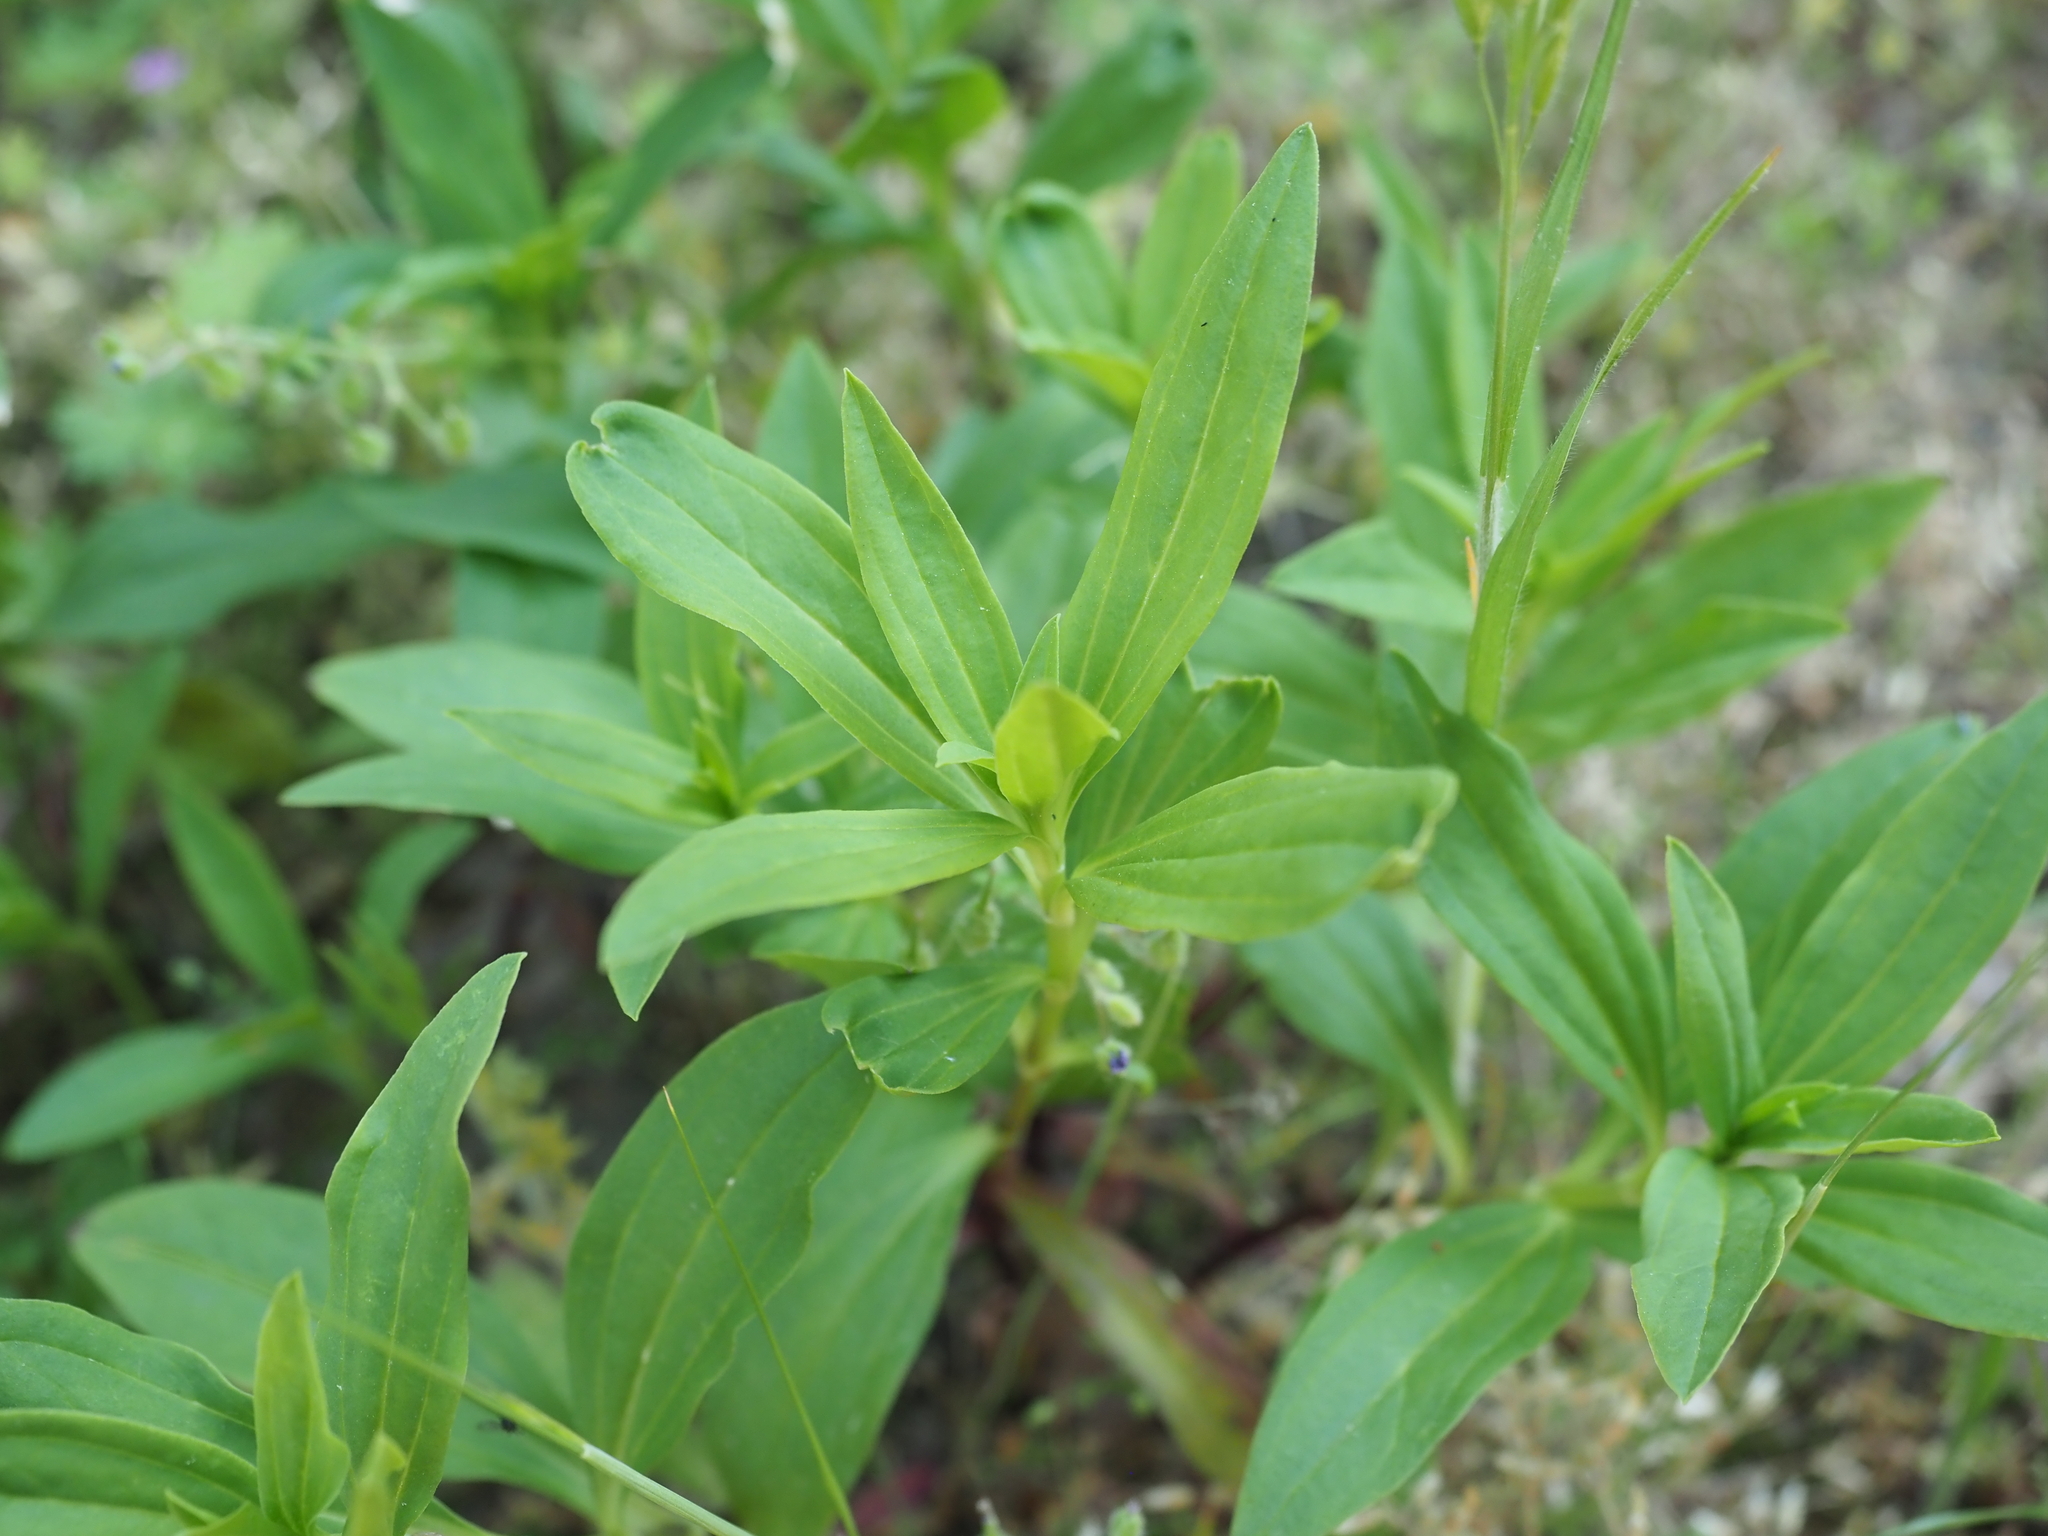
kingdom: Plantae
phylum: Tracheophyta
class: Magnoliopsida
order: Caryophyllales
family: Caryophyllaceae
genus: Saponaria
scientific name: Saponaria officinalis
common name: Soapwort
